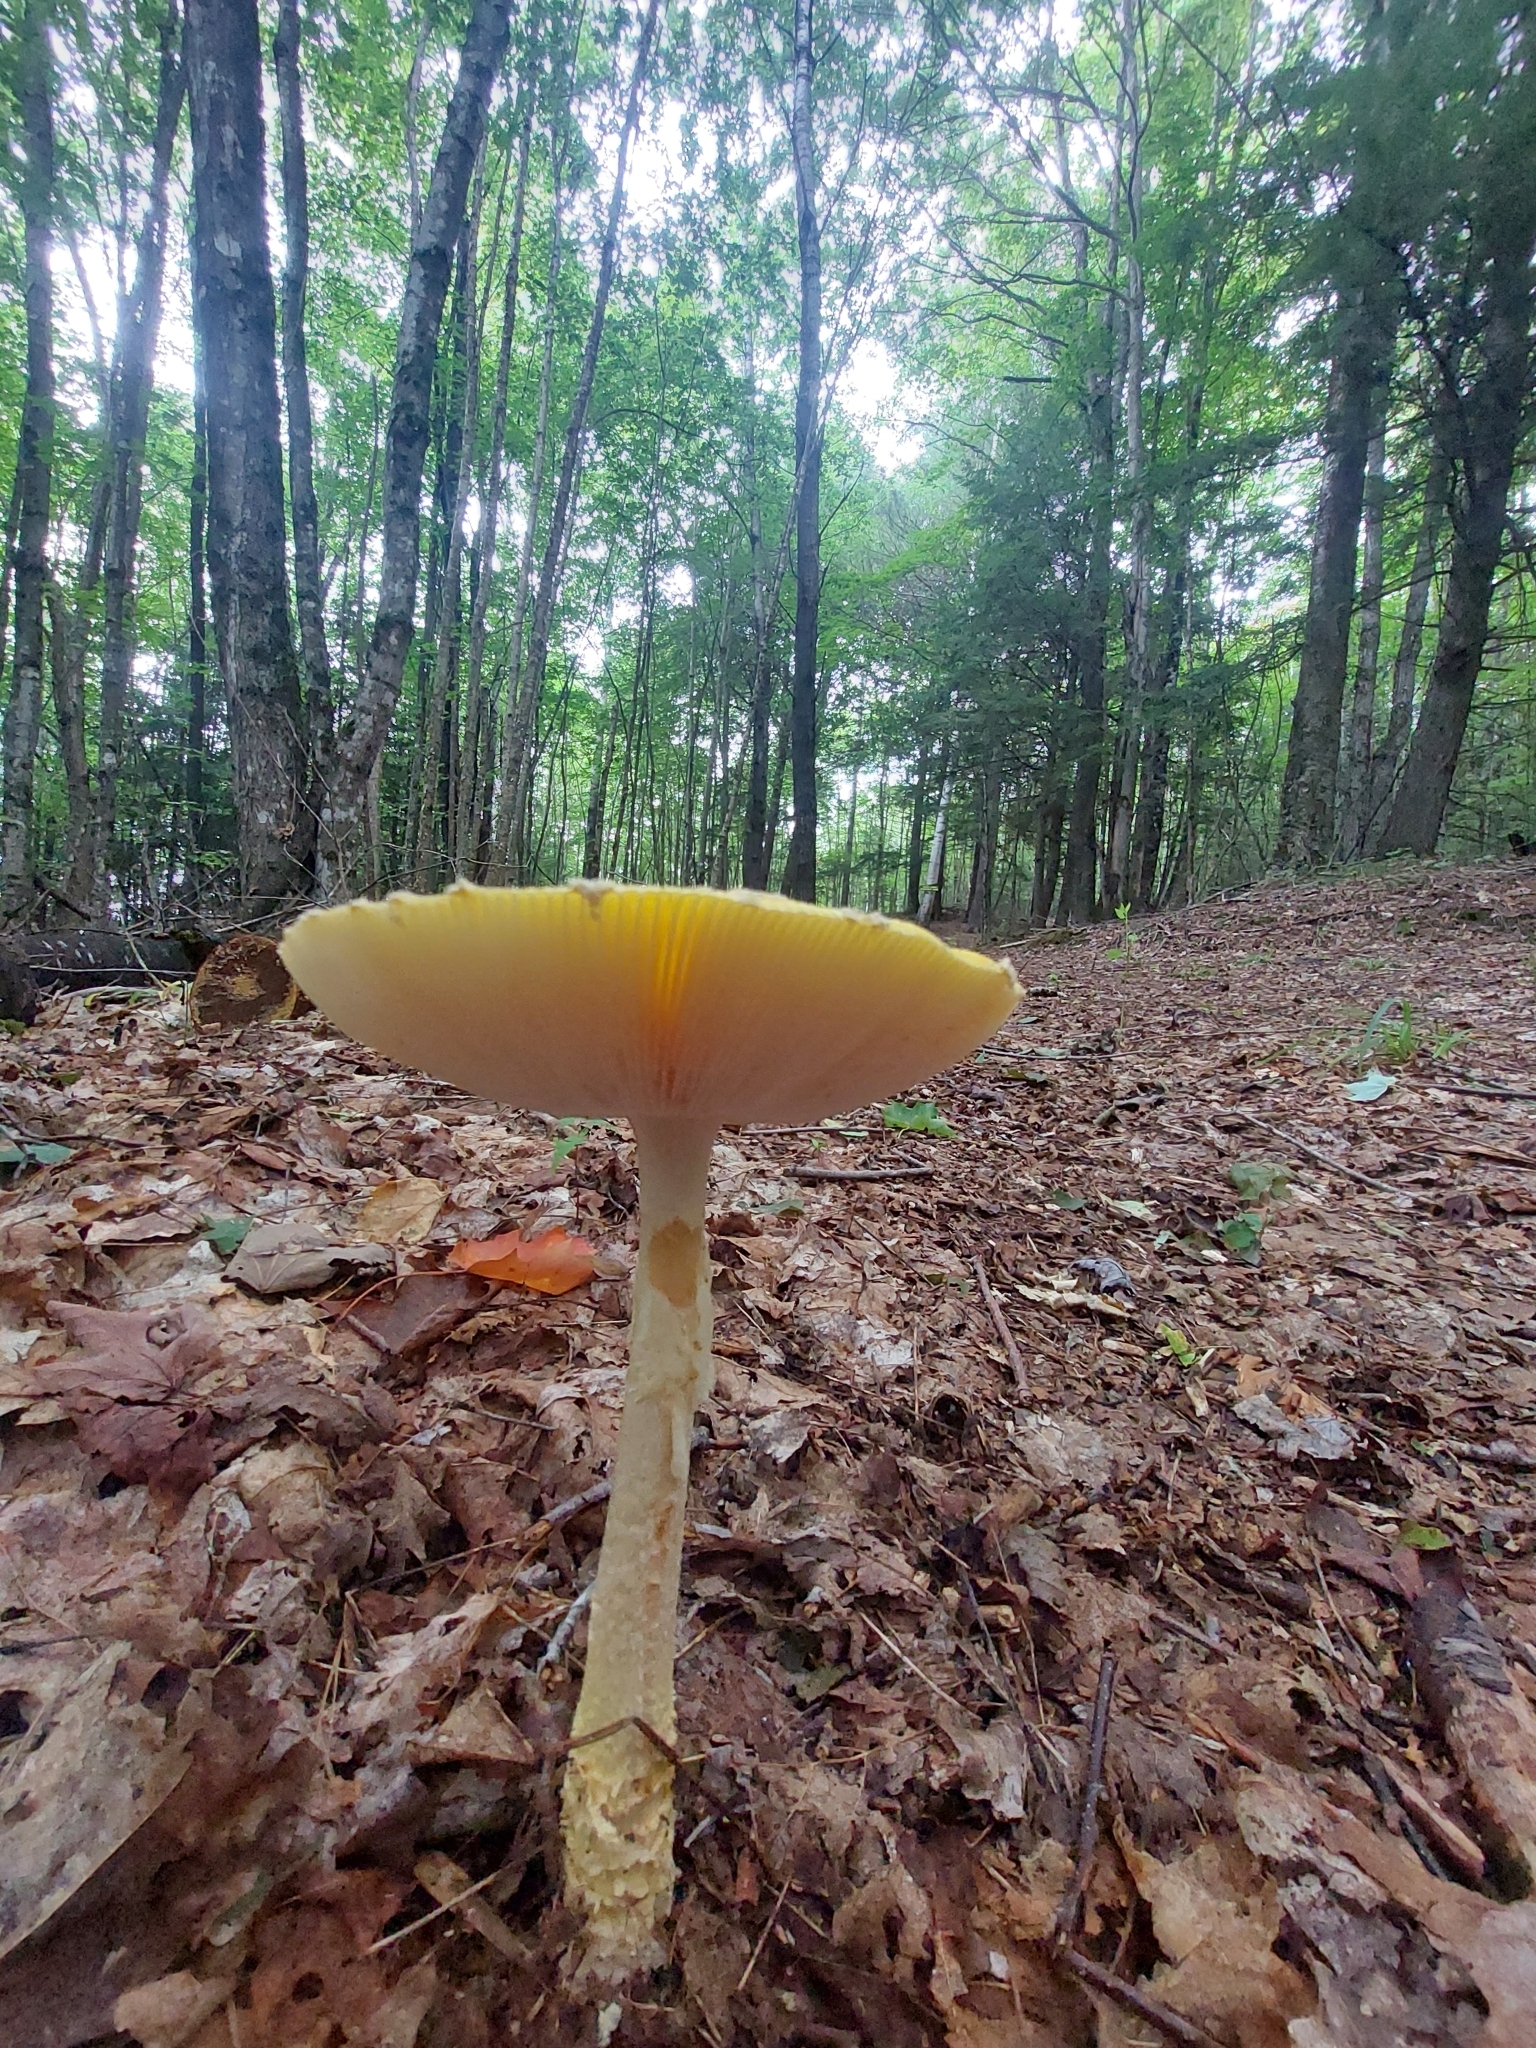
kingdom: Fungi
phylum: Basidiomycota
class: Agaricomycetes
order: Agaricales
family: Amanitaceae
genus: Amanita
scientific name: Amanita muscaria
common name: Fly agaric
